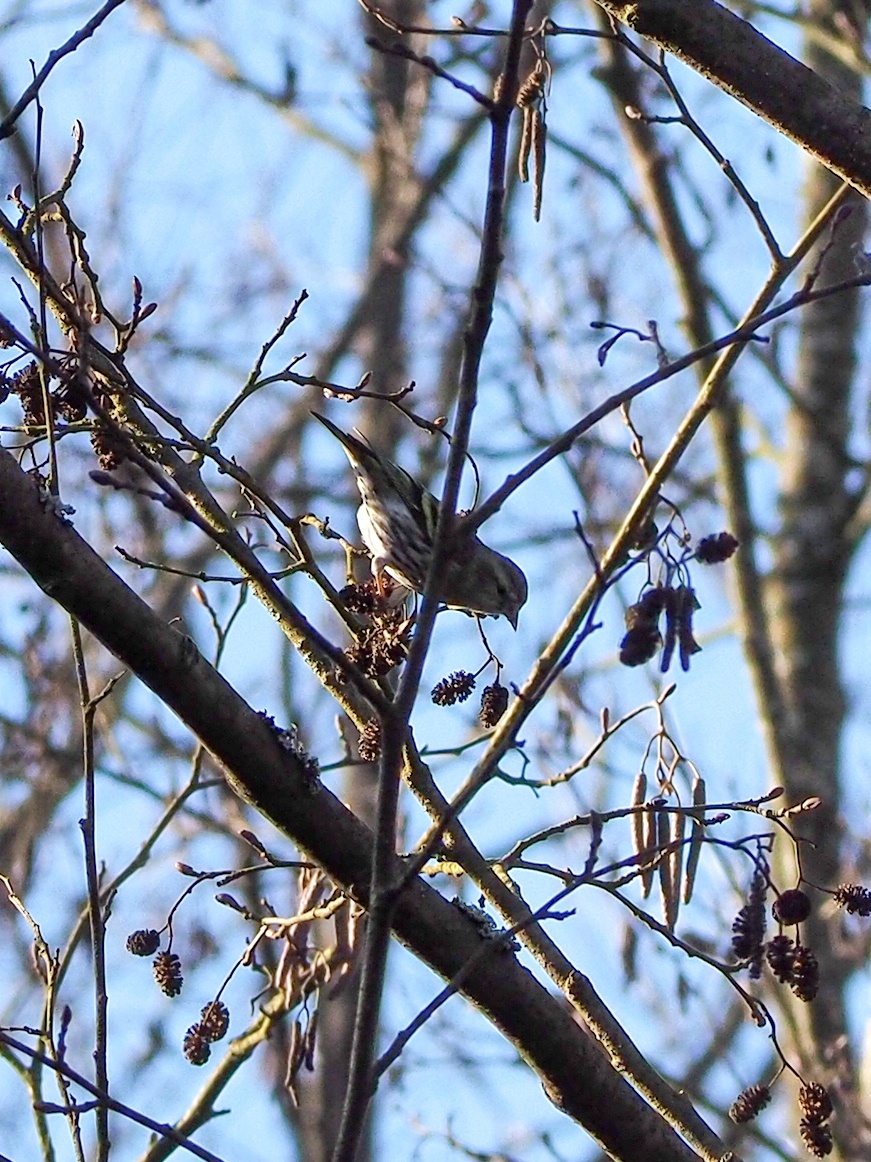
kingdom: Animalia
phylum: Chordata
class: Aves
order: Passeriformes
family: Fringillidae
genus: Spinus
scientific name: Spinus spinus
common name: Eurasian siskin
